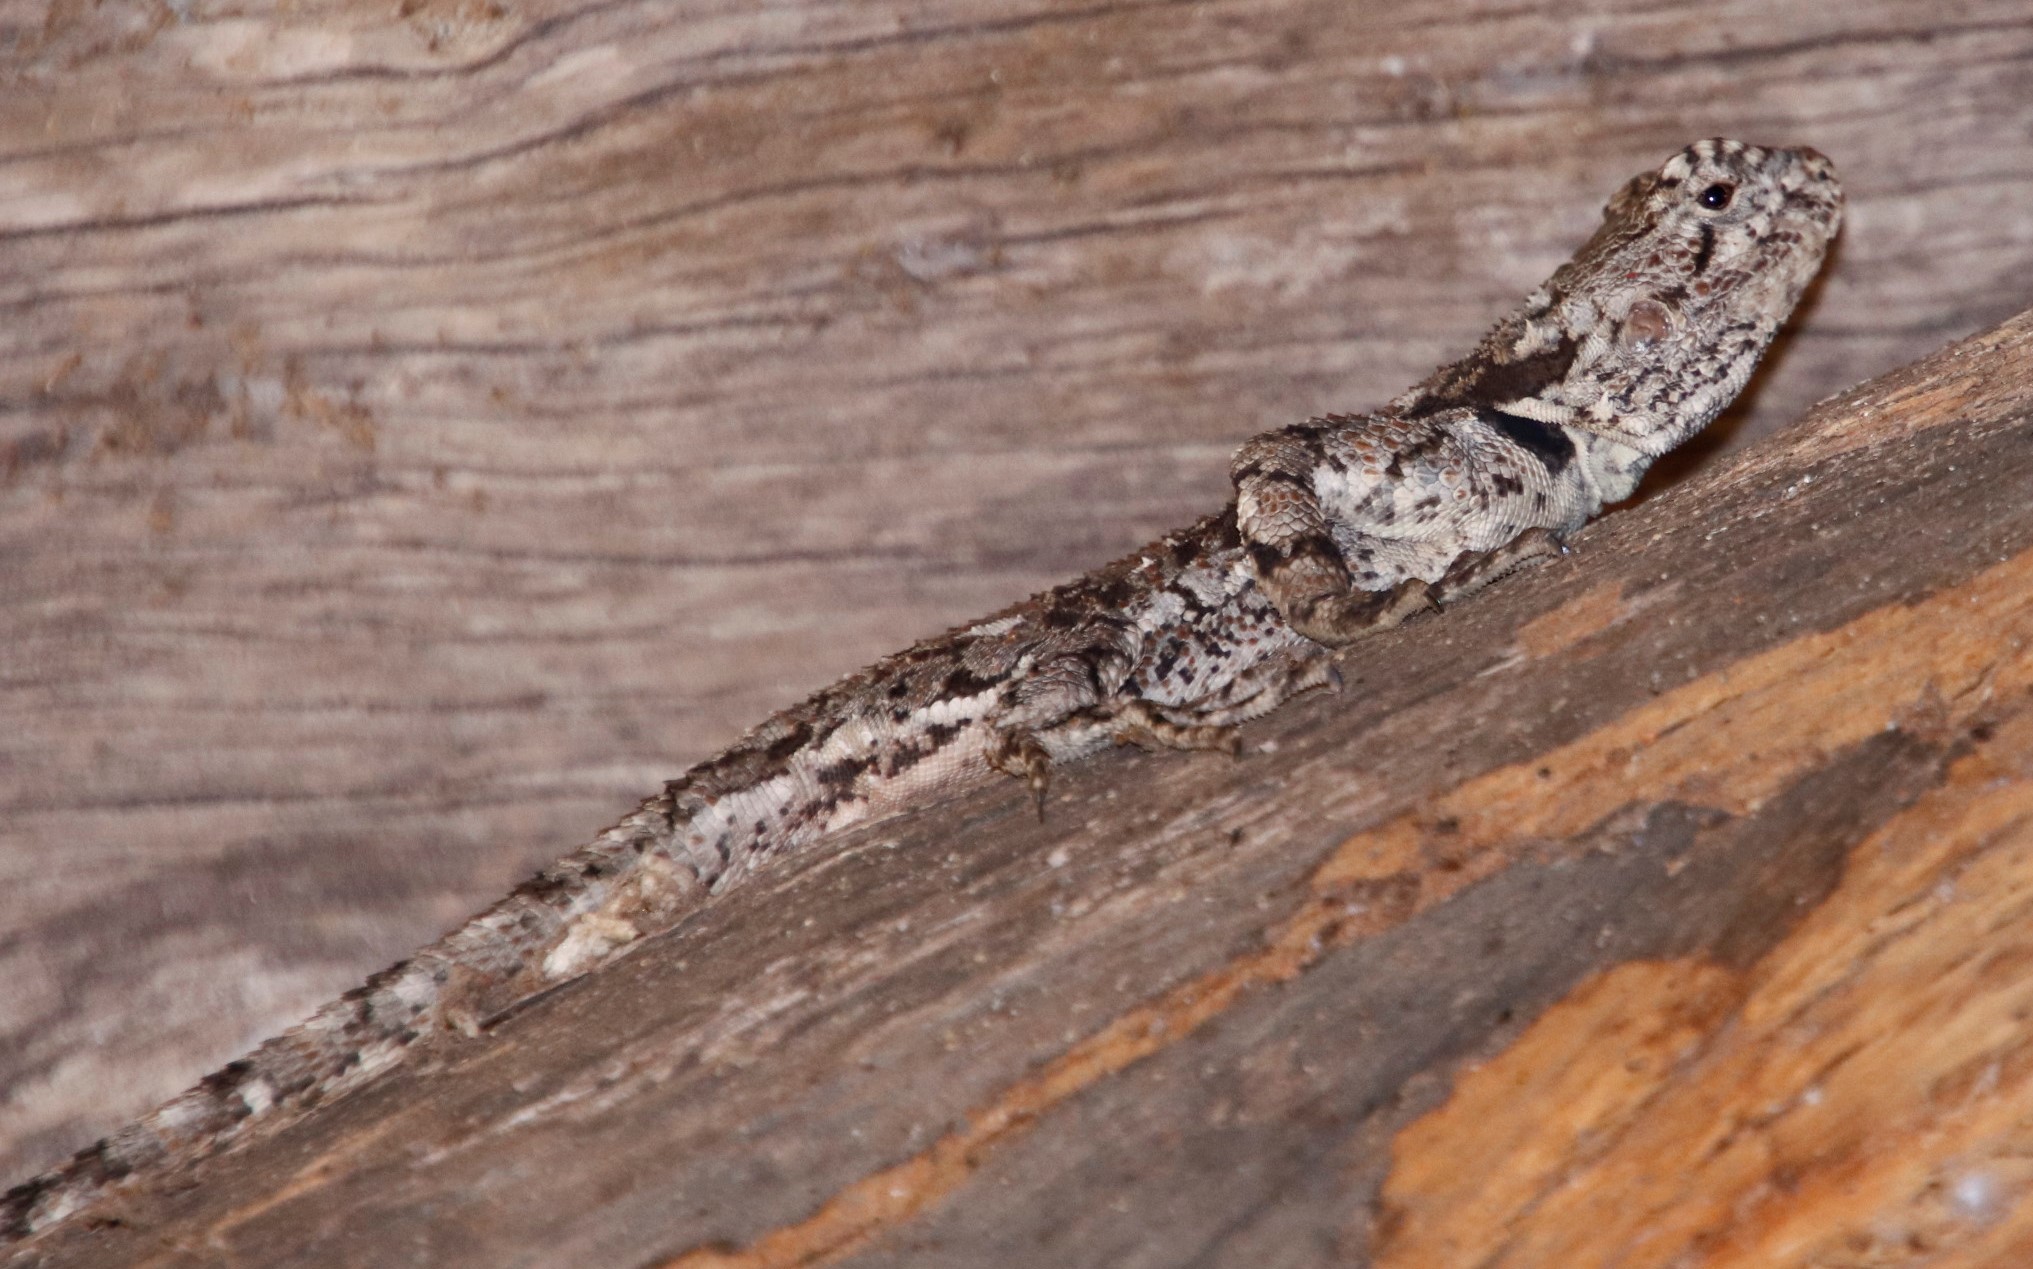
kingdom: Animalia
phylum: Chordata
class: Squamata
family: Agamidae
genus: Acanthocercus
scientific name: Acanthocercus atricollis
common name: Southern tree agama
